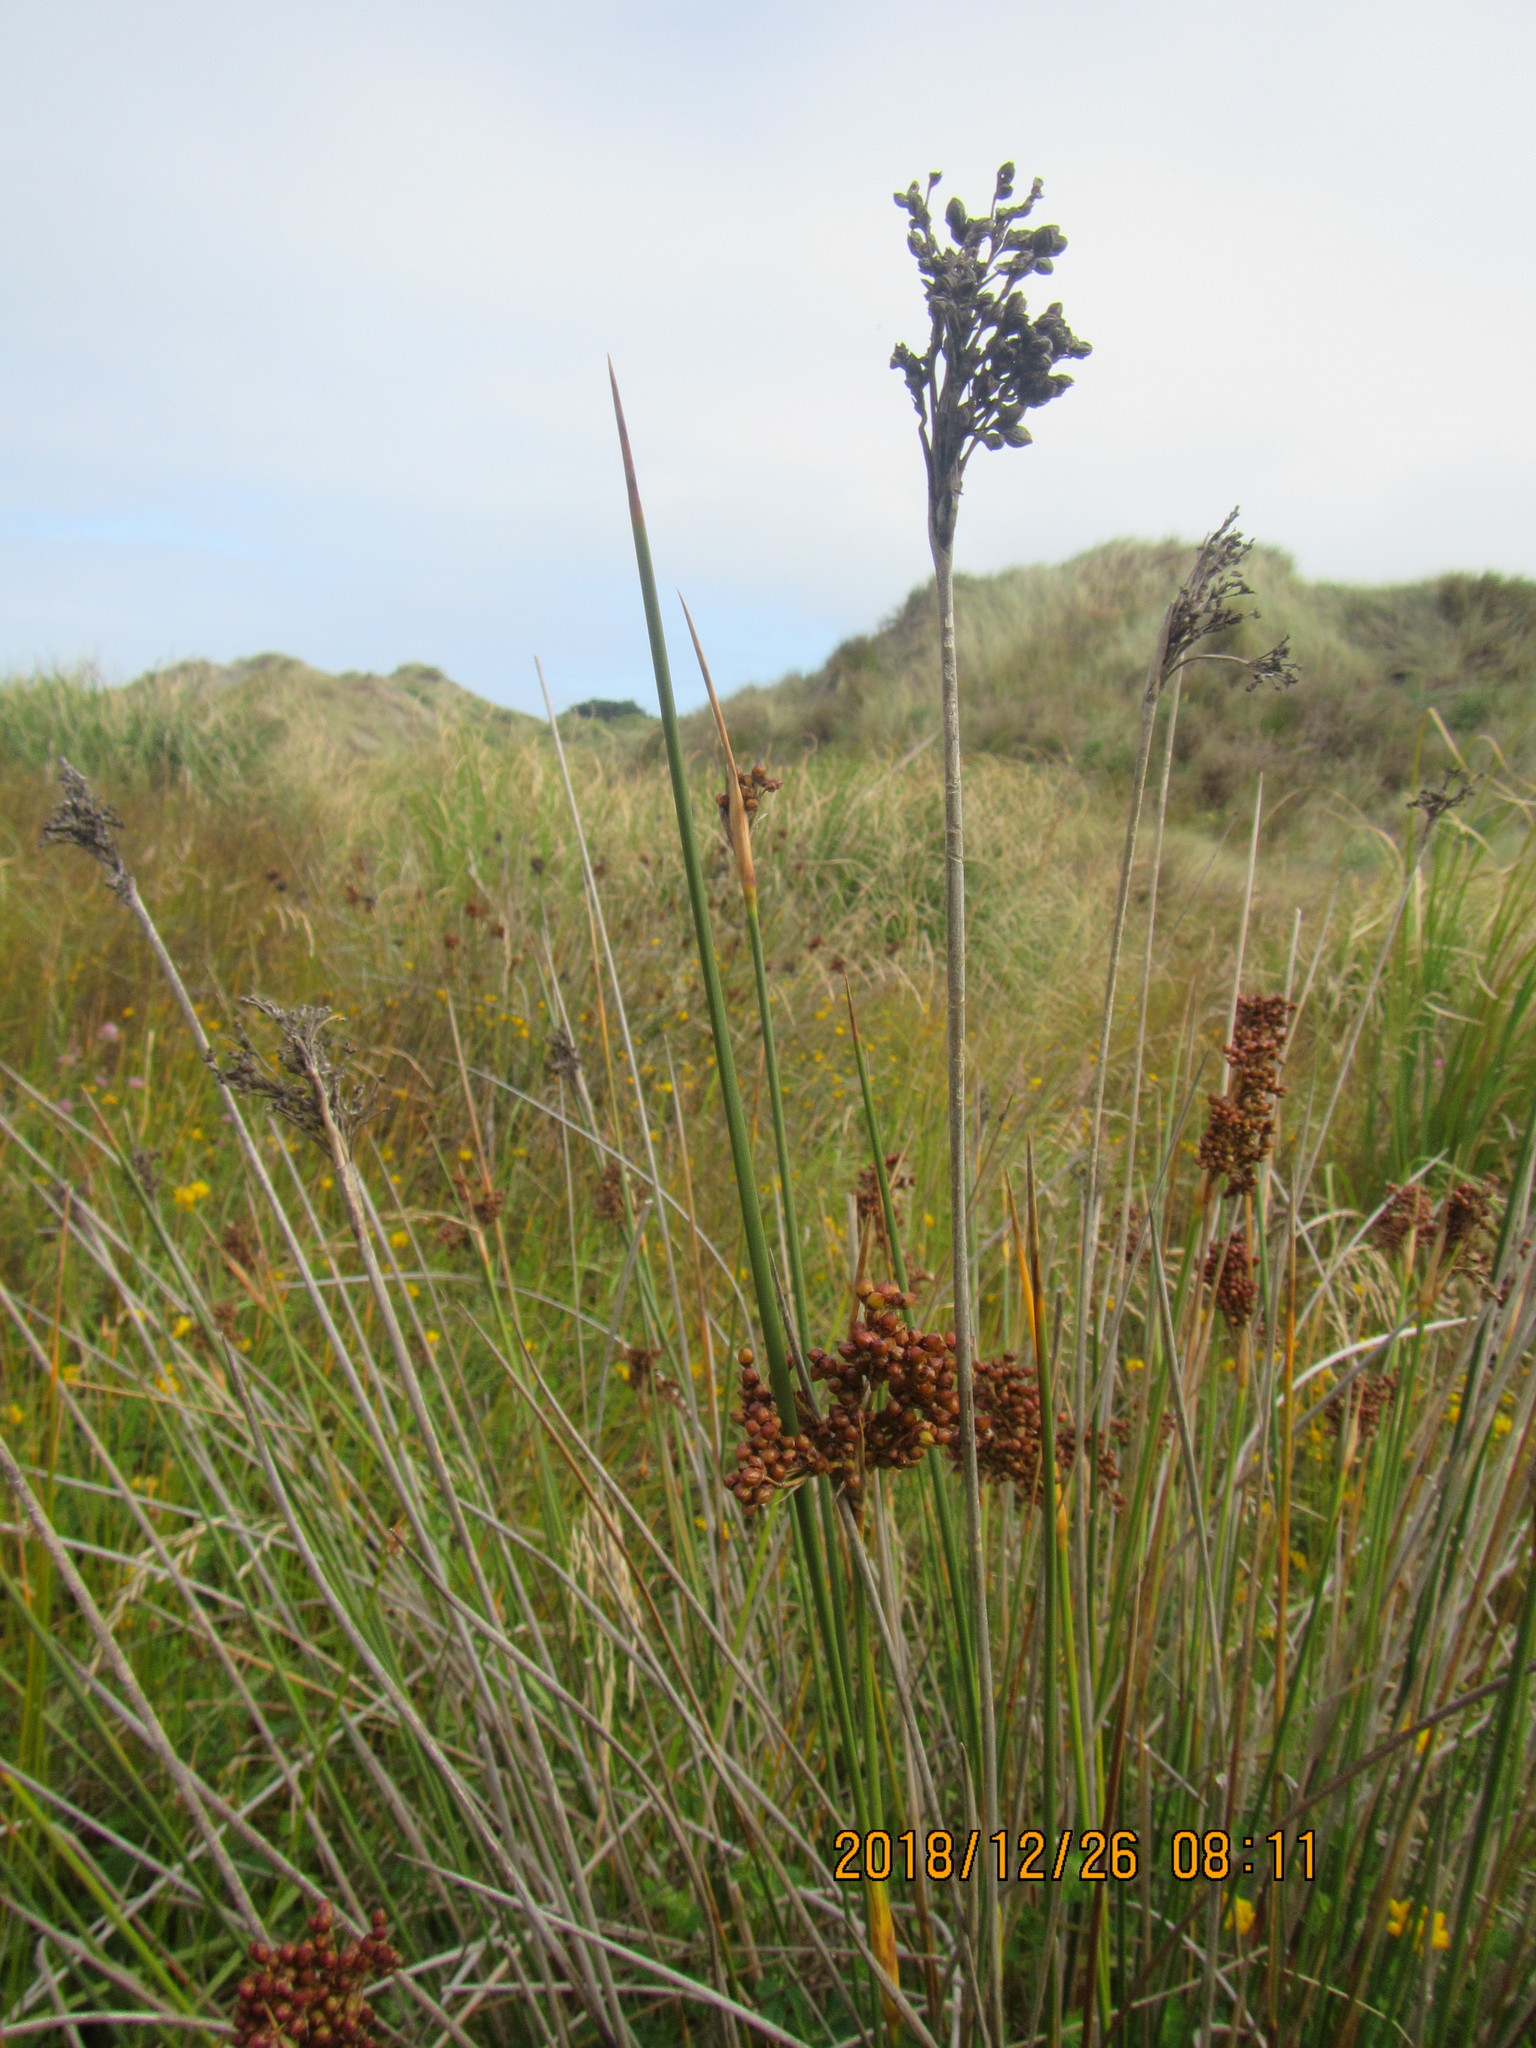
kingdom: Plantae
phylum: Tracheophyta
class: Liliopsida
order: Poales
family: Juncaceae
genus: Juncus
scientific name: Juncus acutus
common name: Sharp rush
